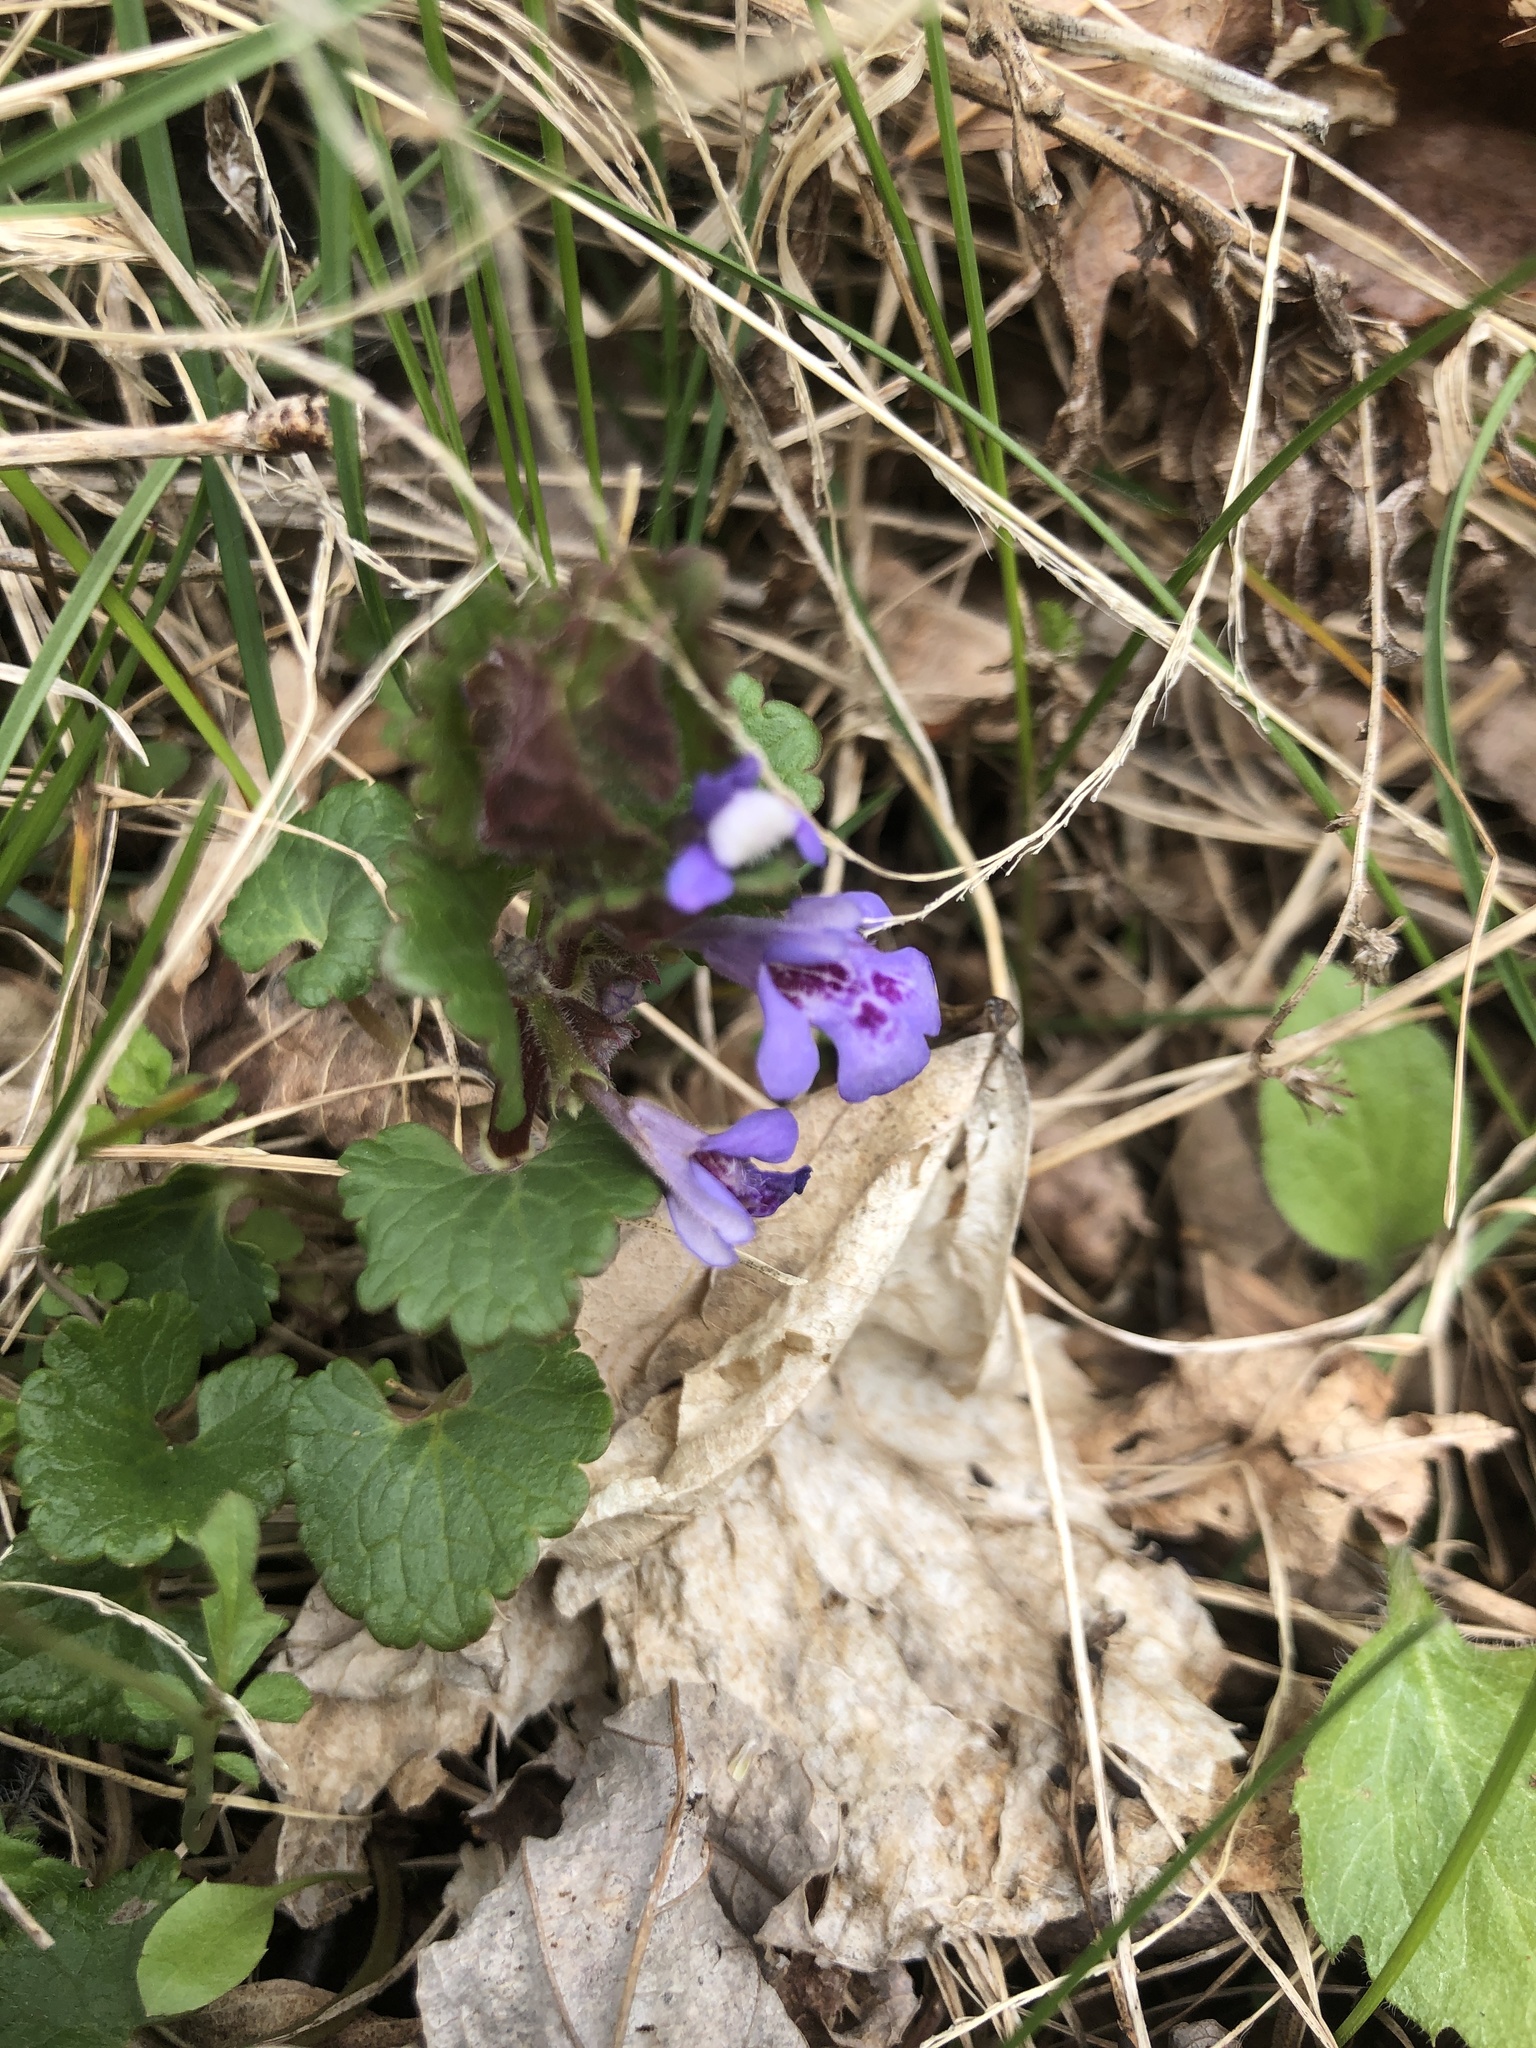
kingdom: Plantae
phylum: Tracheophyta
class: Magnoliopsida
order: Lamiales
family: Lamiaceae
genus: Glechoma
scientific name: Glechoma hederacea
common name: Ground ivy
